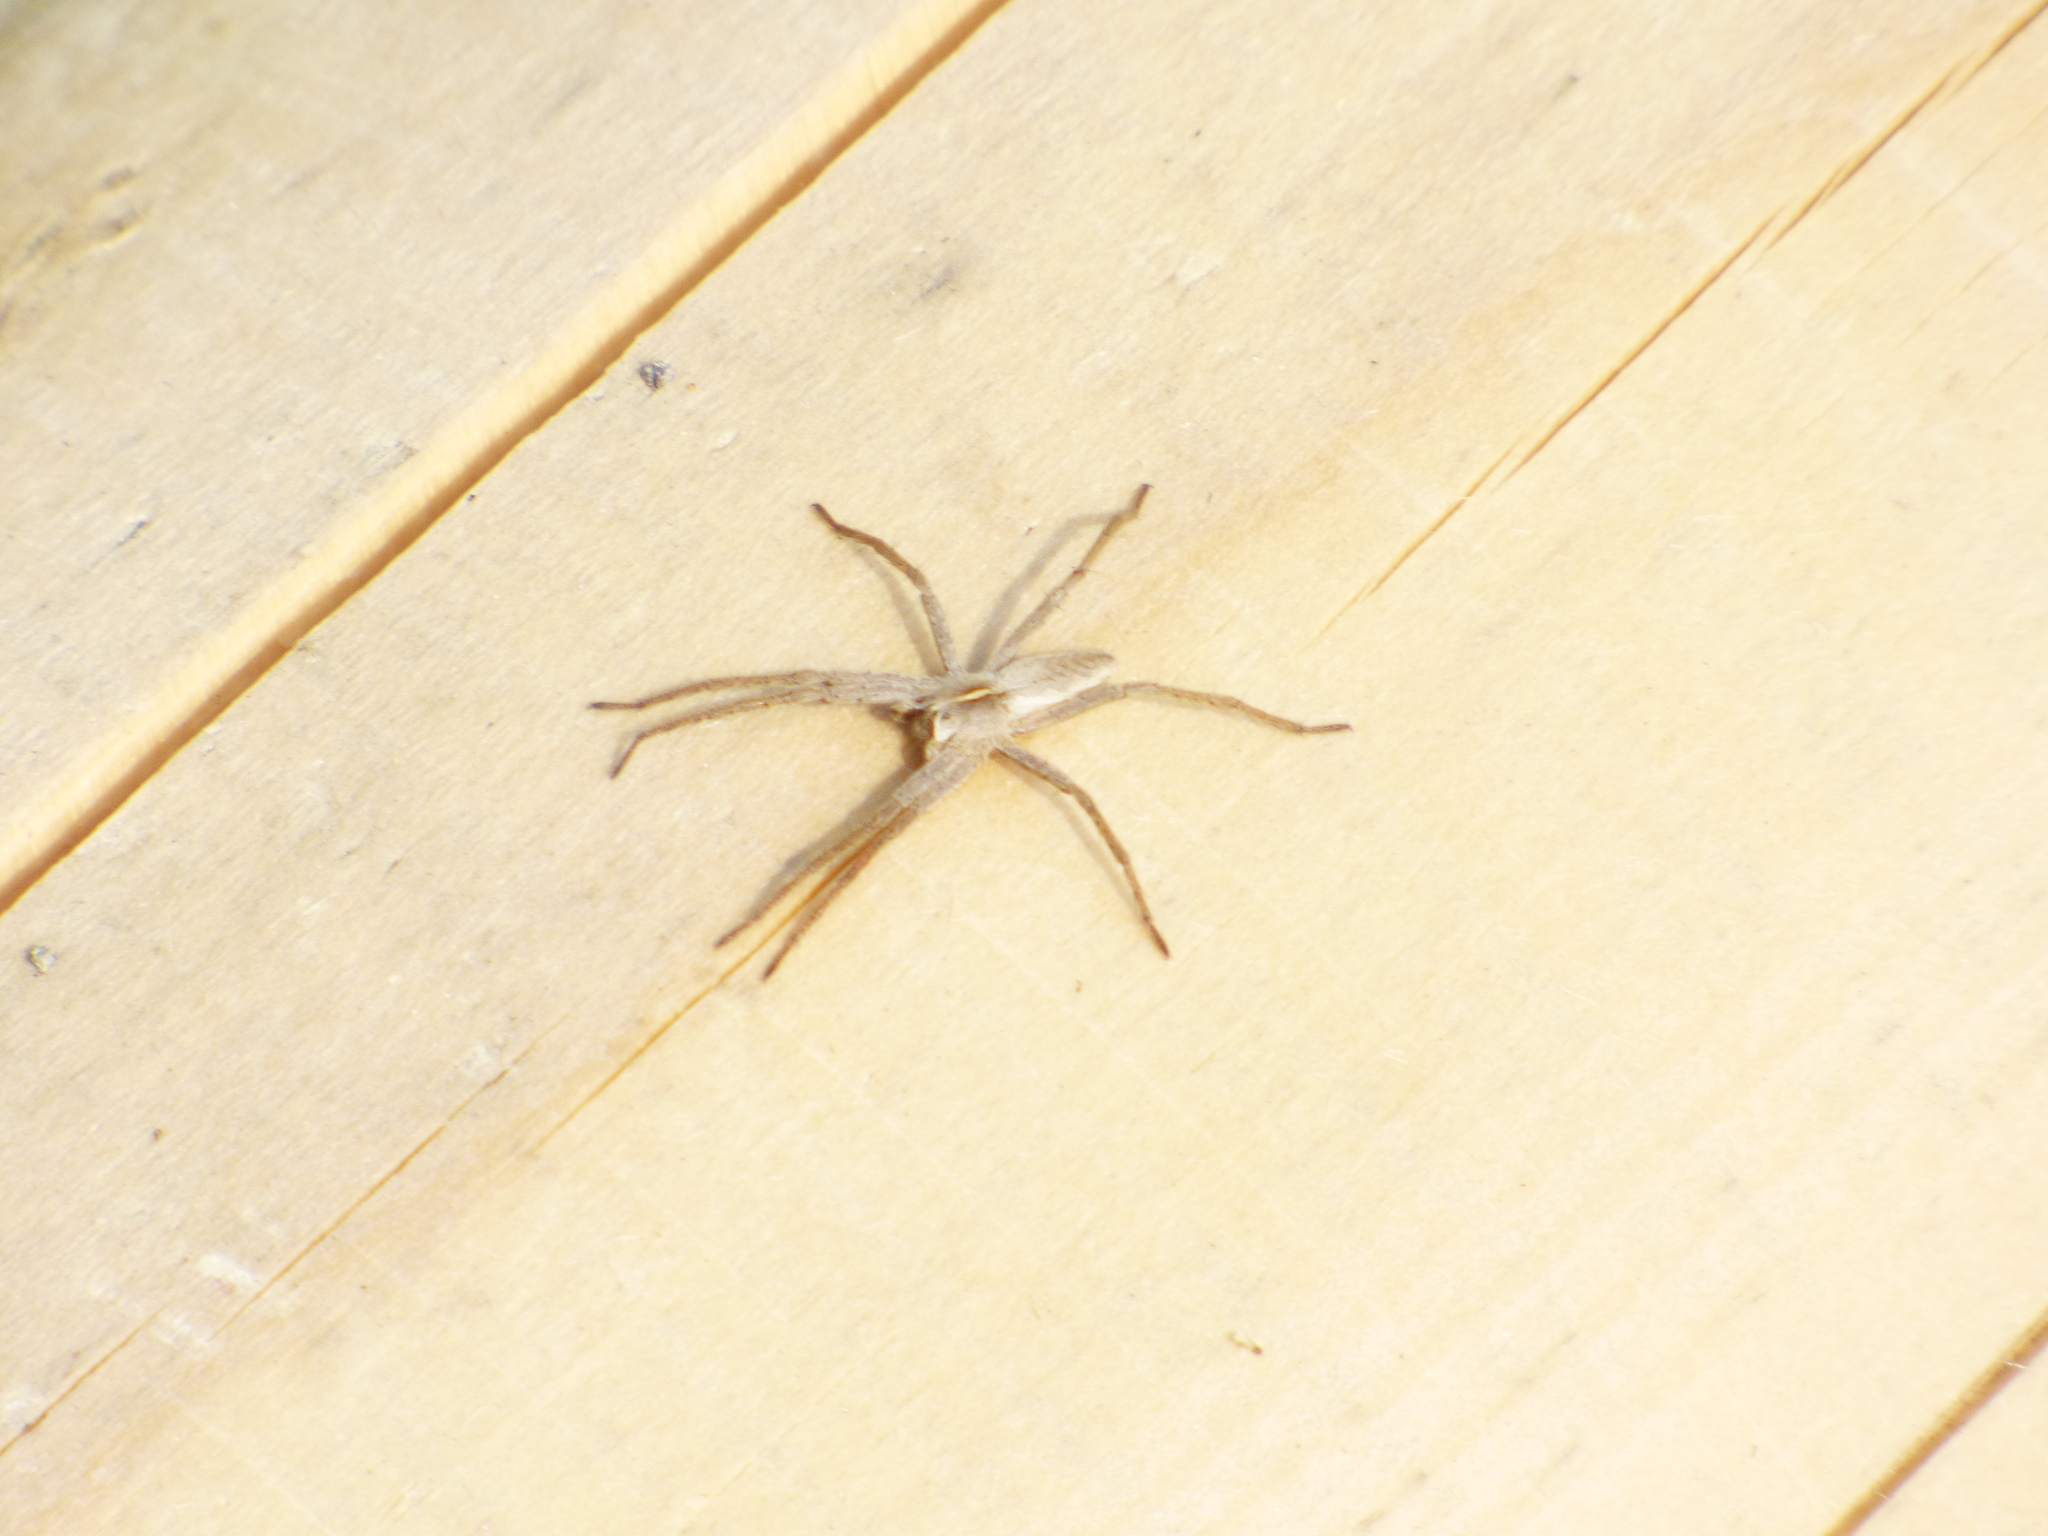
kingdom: Animalia
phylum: Arthropoda
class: Arachnida
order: Araneae
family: Pisauridae
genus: Pisaura
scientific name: Pisaura mirabilis
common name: Tent spider
